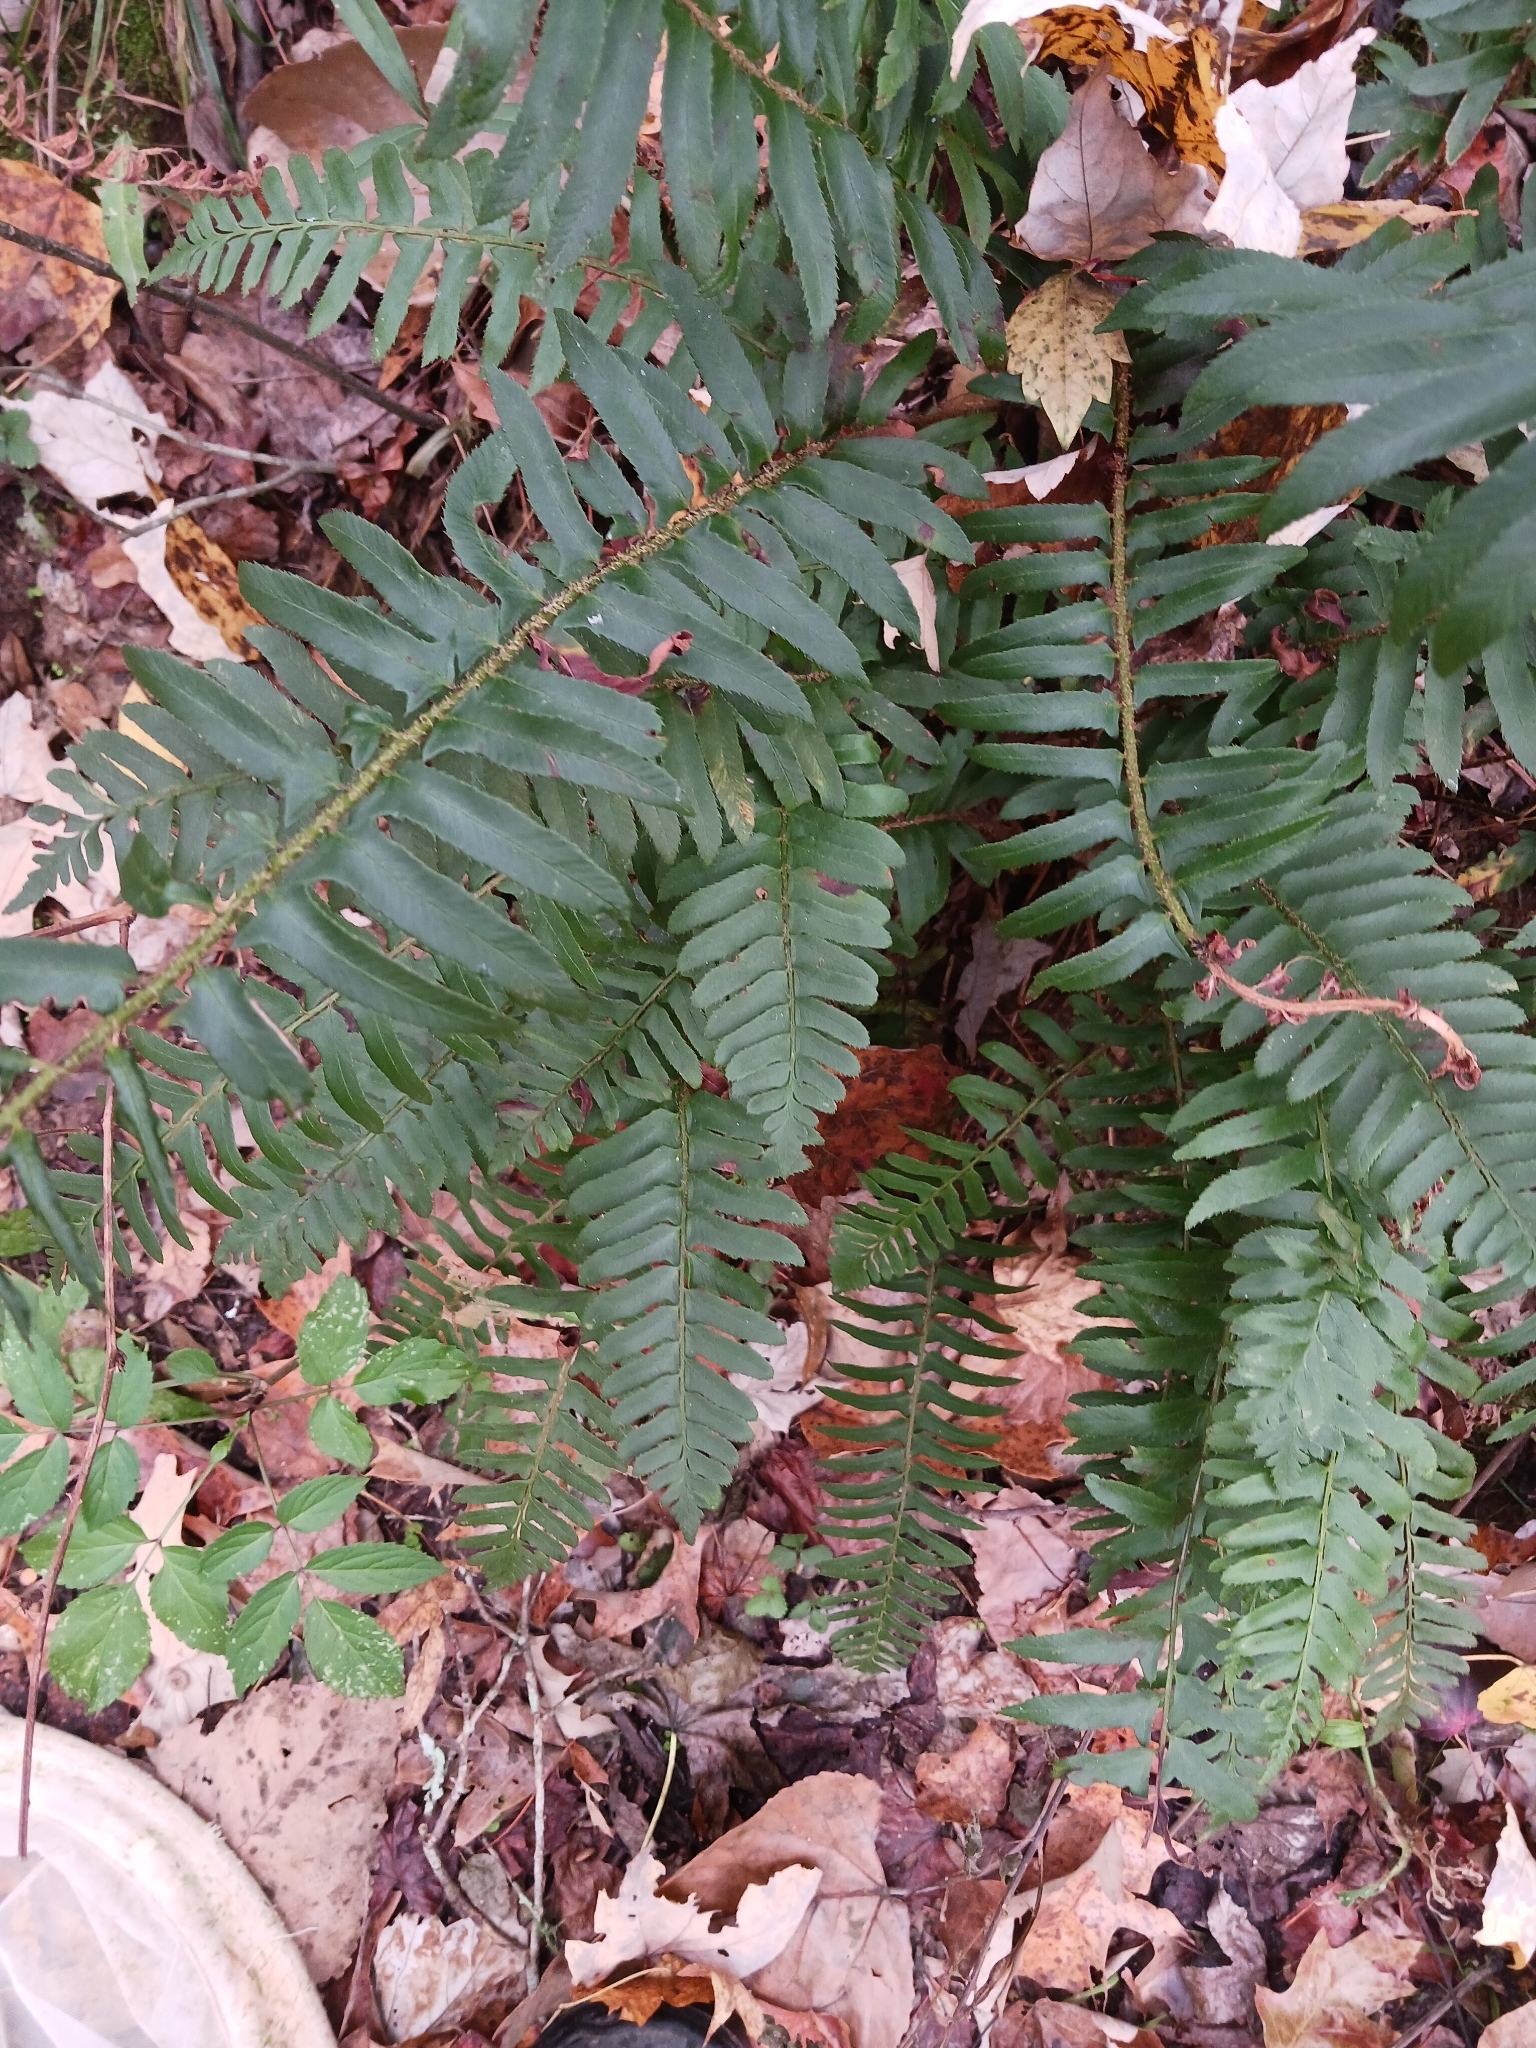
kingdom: Plantae
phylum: Tracheophyta
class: Polypodiopsida
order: Polypodiales
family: Dryopteridaceae
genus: Polystichum
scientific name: Polystichum acrostichoides
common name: Christmas fern
